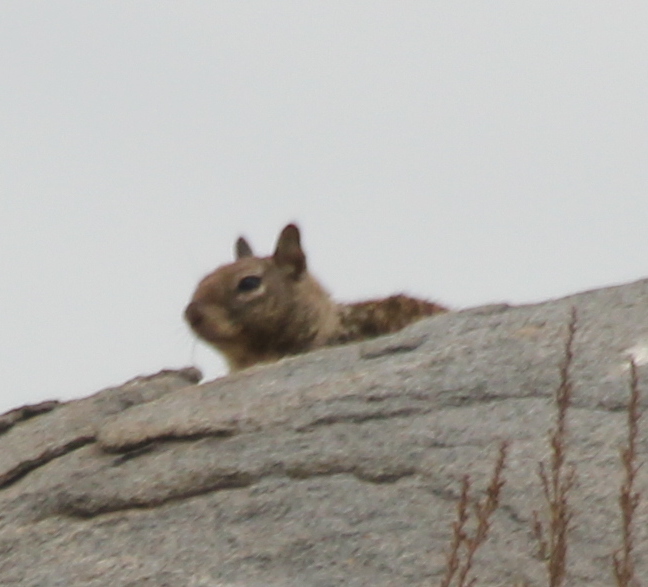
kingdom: Animalia
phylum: Chordata
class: Mammalia
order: Rodentia
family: Sciuridae
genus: Otospermophilus
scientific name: Otospermophilus beecheyi
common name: California ground squirrel
